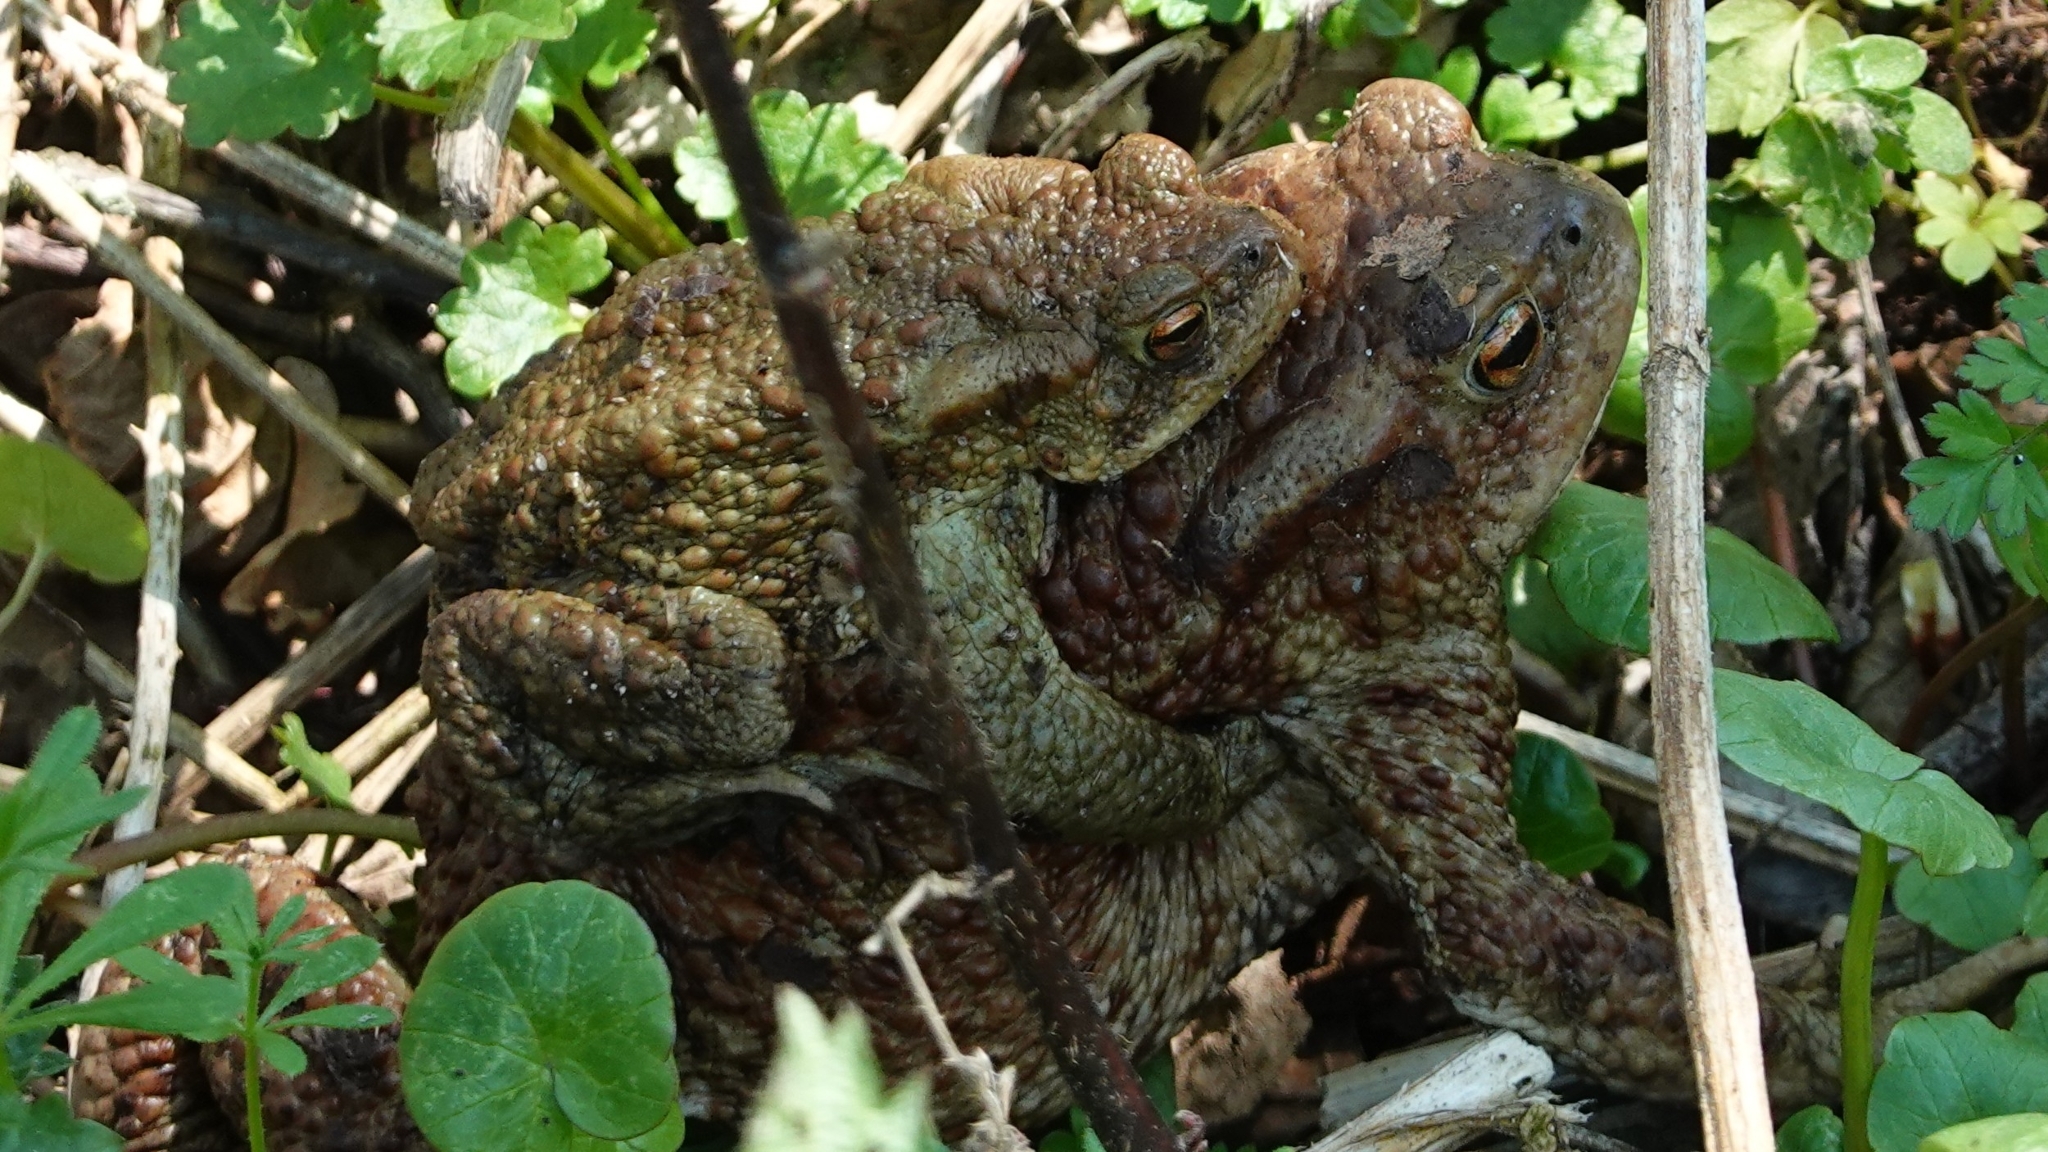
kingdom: Animalia
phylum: Chordata
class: Amphibia
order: Anura
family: Bufonidae
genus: Bufo
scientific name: Bufo bufo
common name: Common toad
